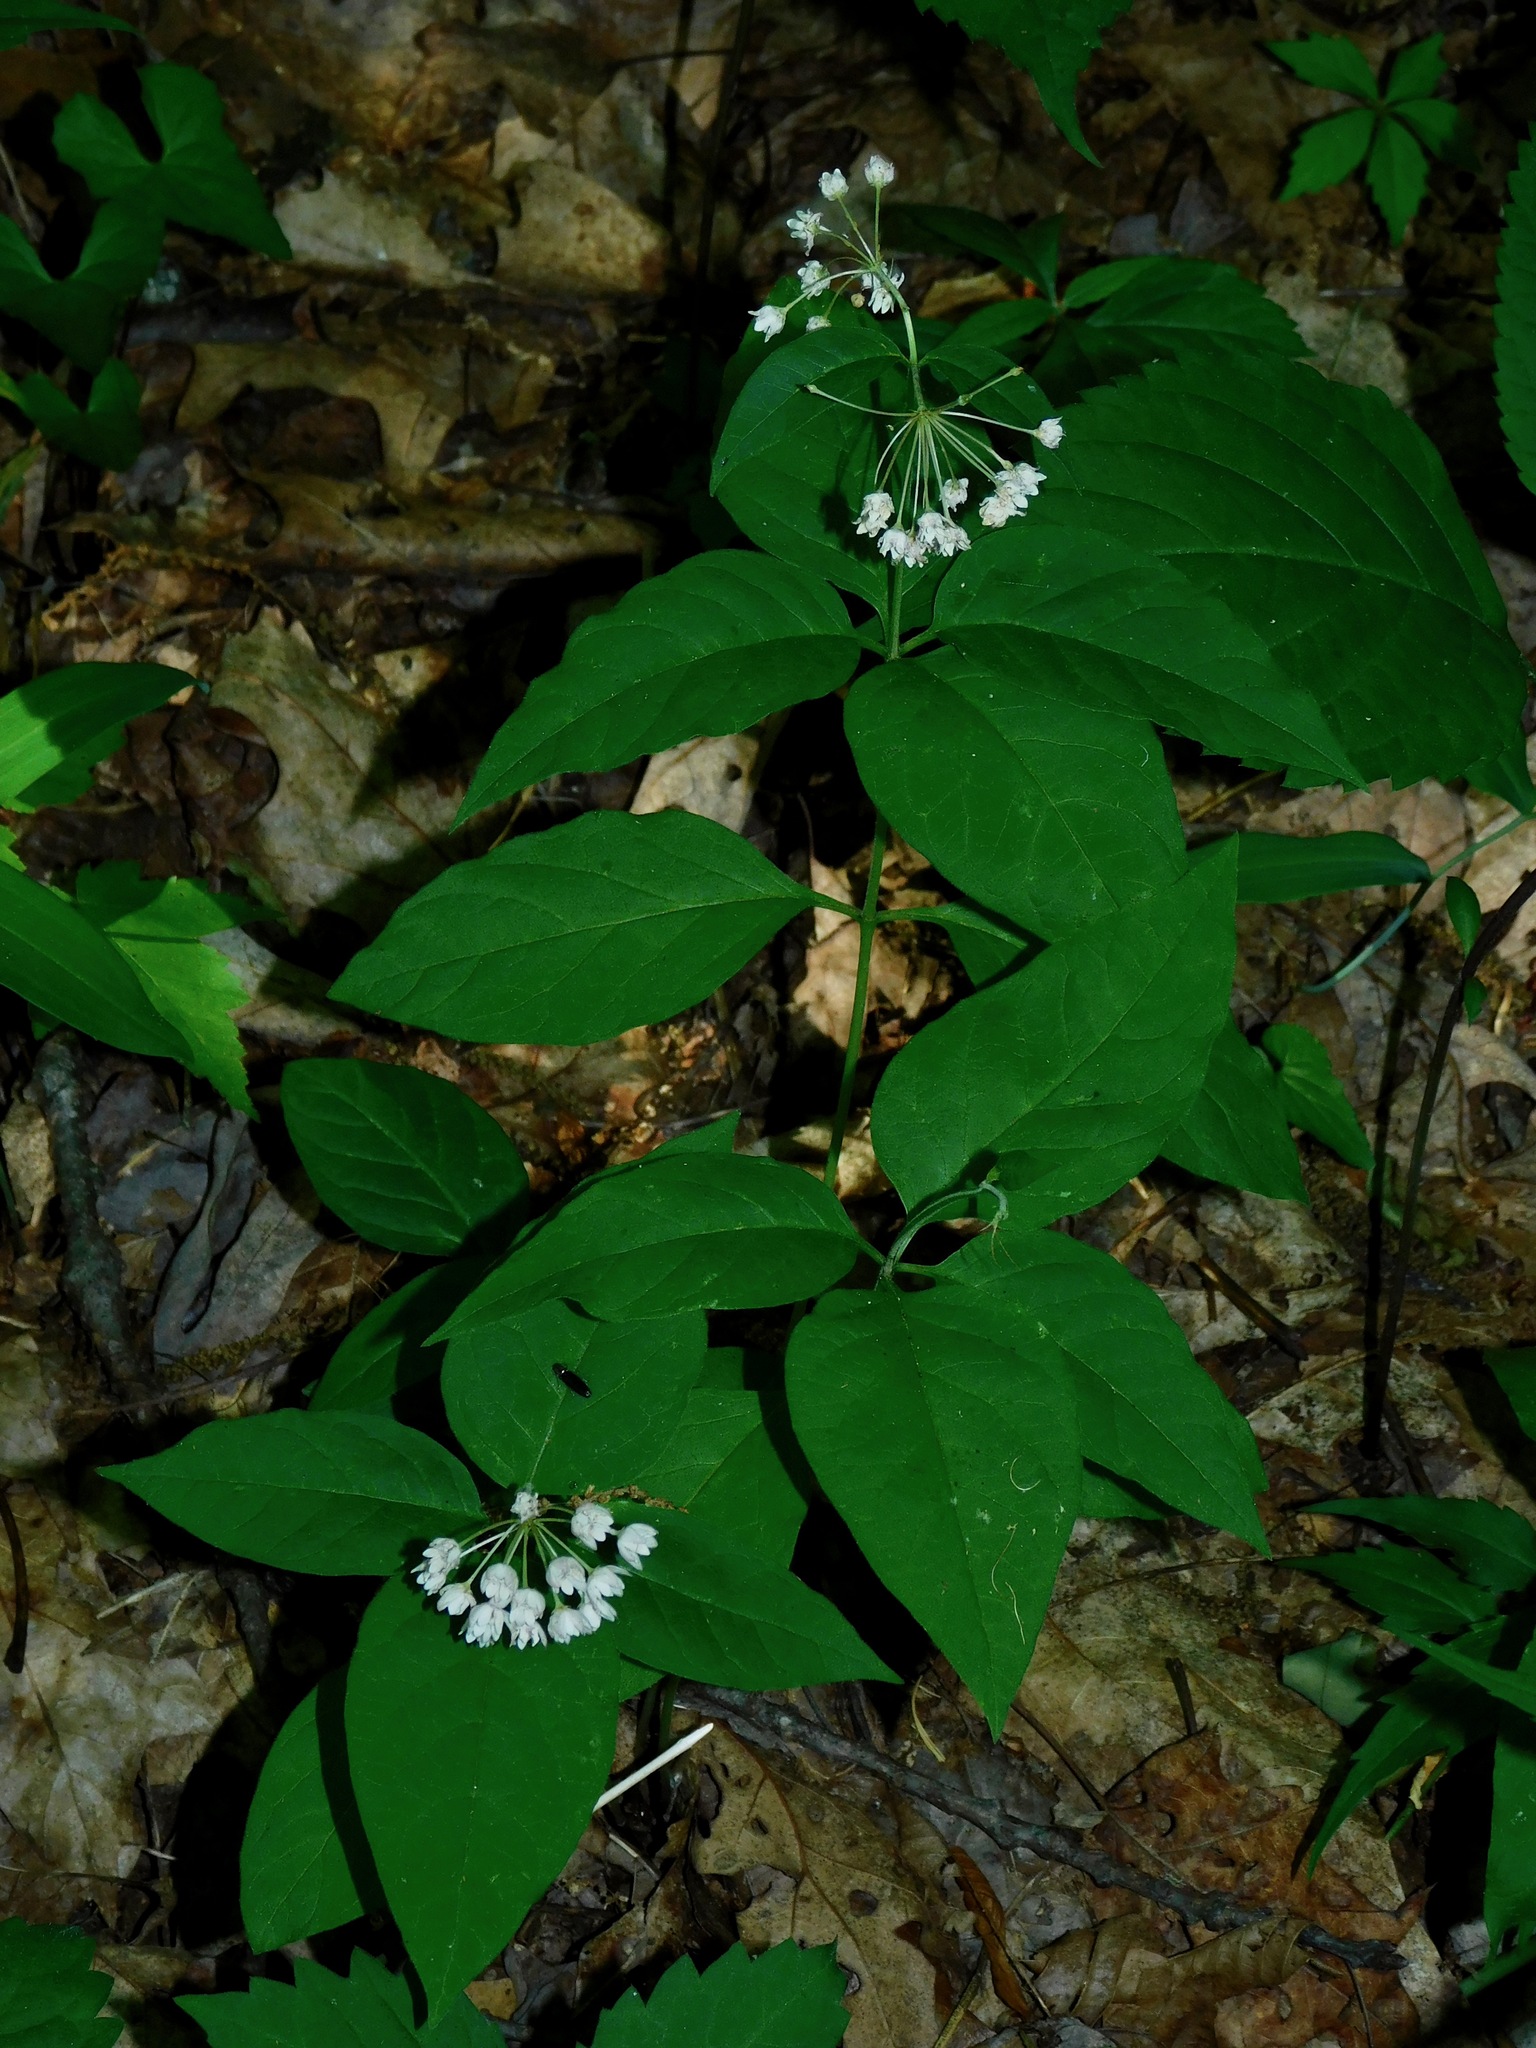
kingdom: Plantae
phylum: Tracheophyta
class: Magnoliopsida
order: Gentianales
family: Apocynaceae
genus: Asclepias
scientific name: Asclepias quadrifolia
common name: Whorled milkweed
